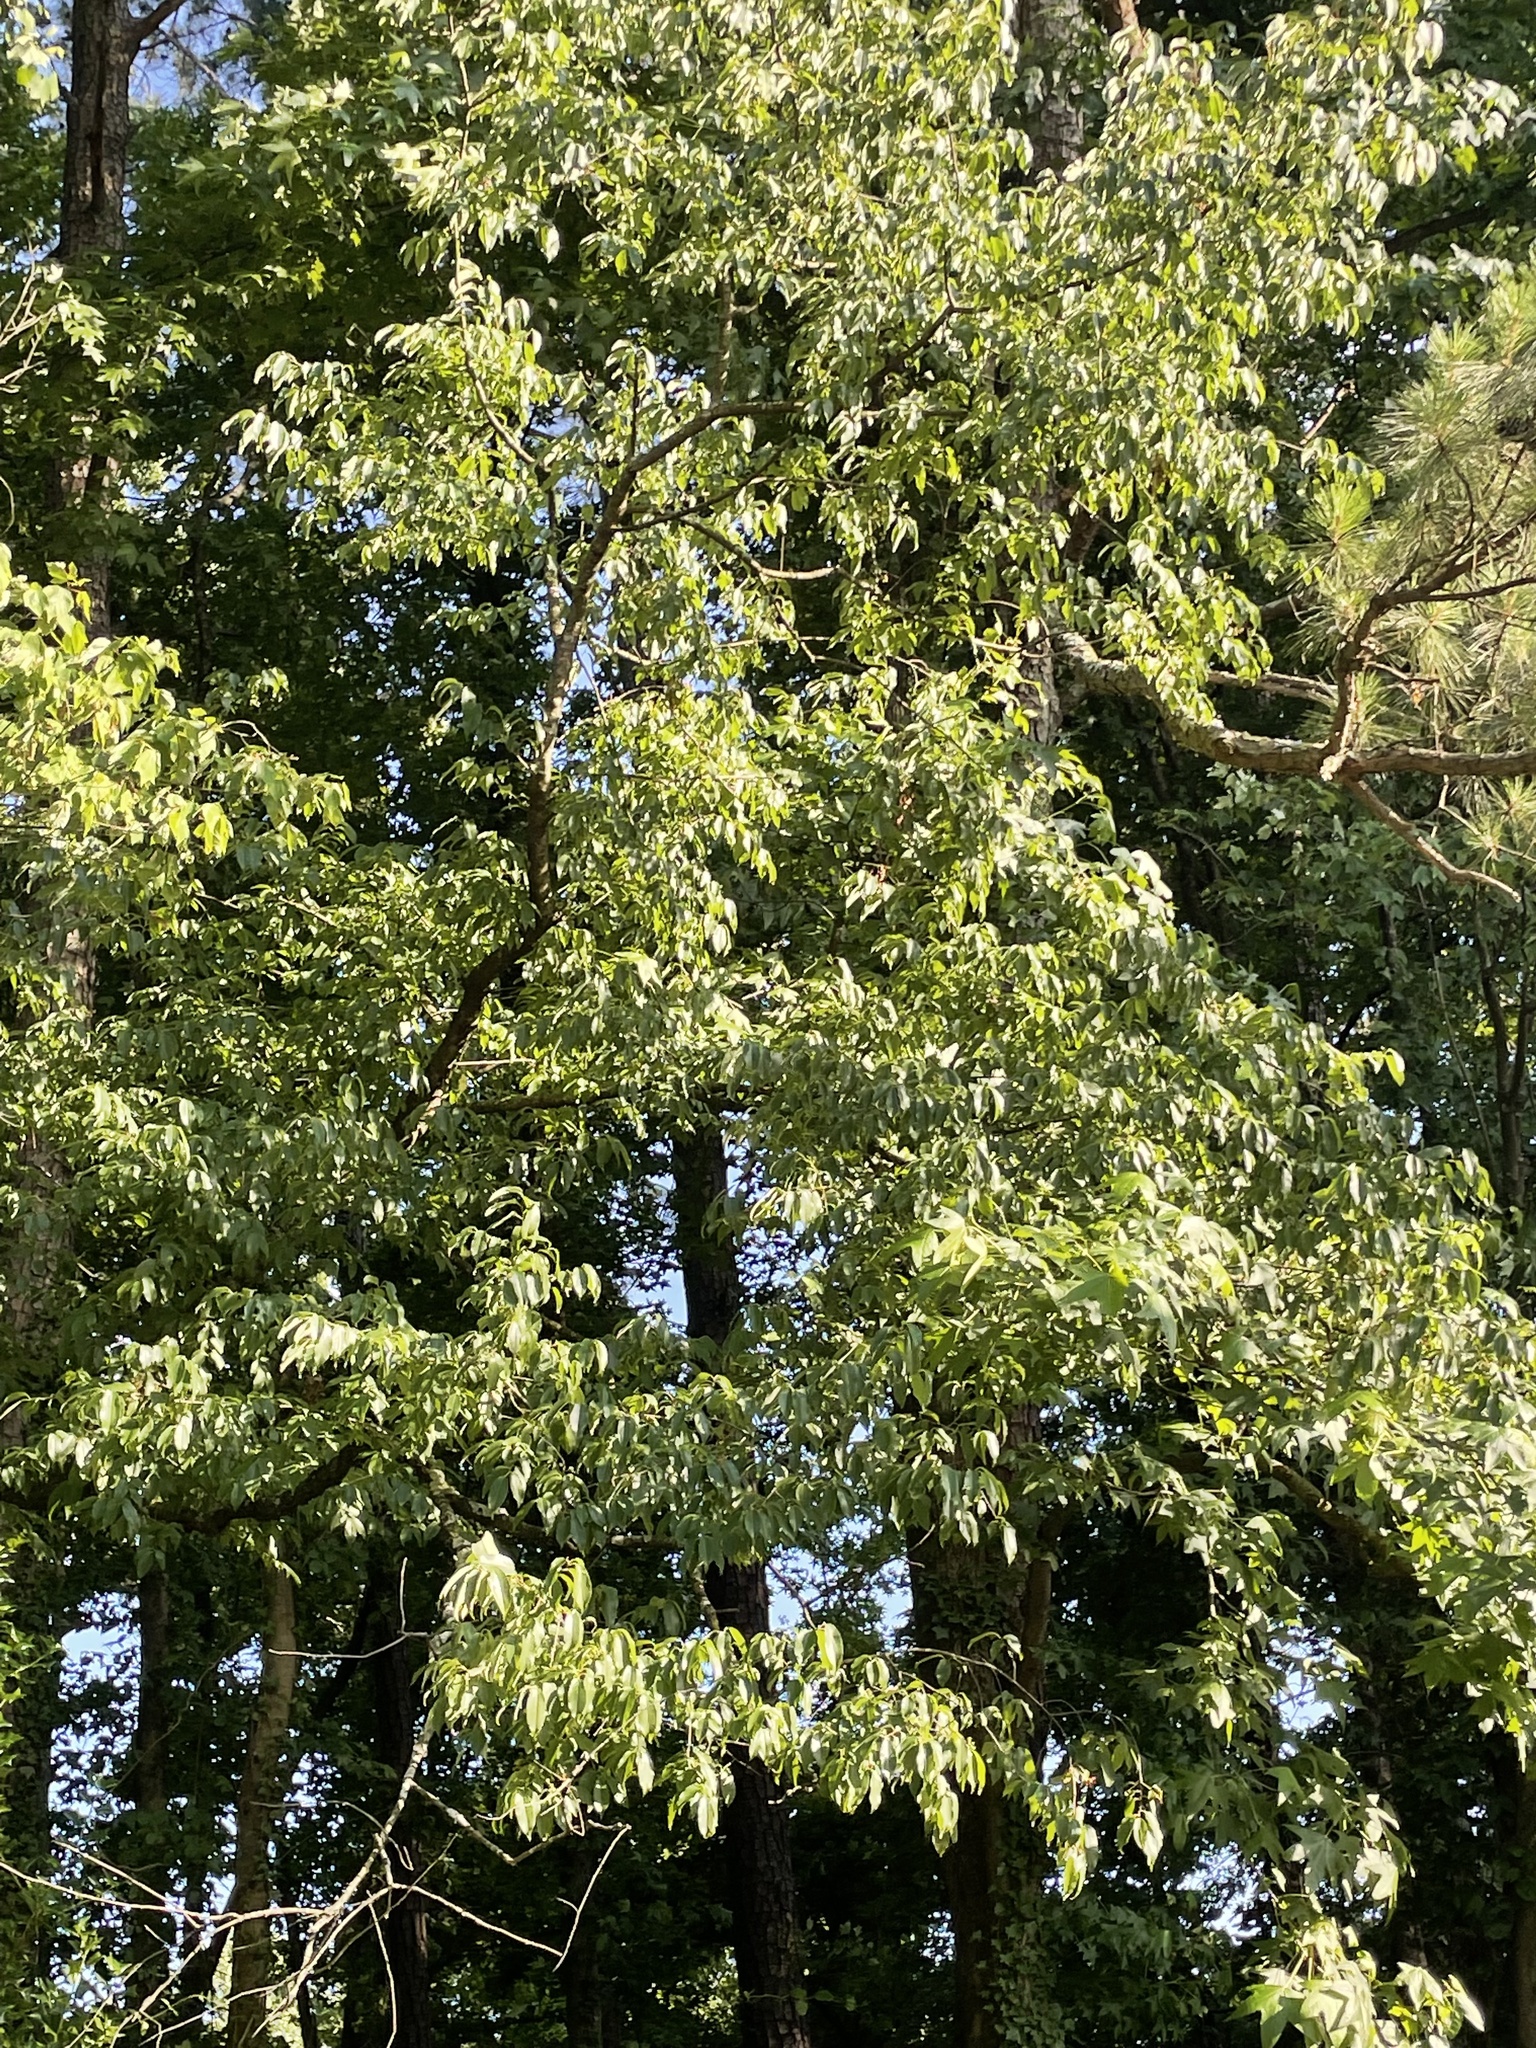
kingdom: Plantae
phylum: Tracheophyta
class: Magnoliopsida
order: Rosales
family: Rosaceae
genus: Prunus
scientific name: Prunus serotina
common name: Black cherry
